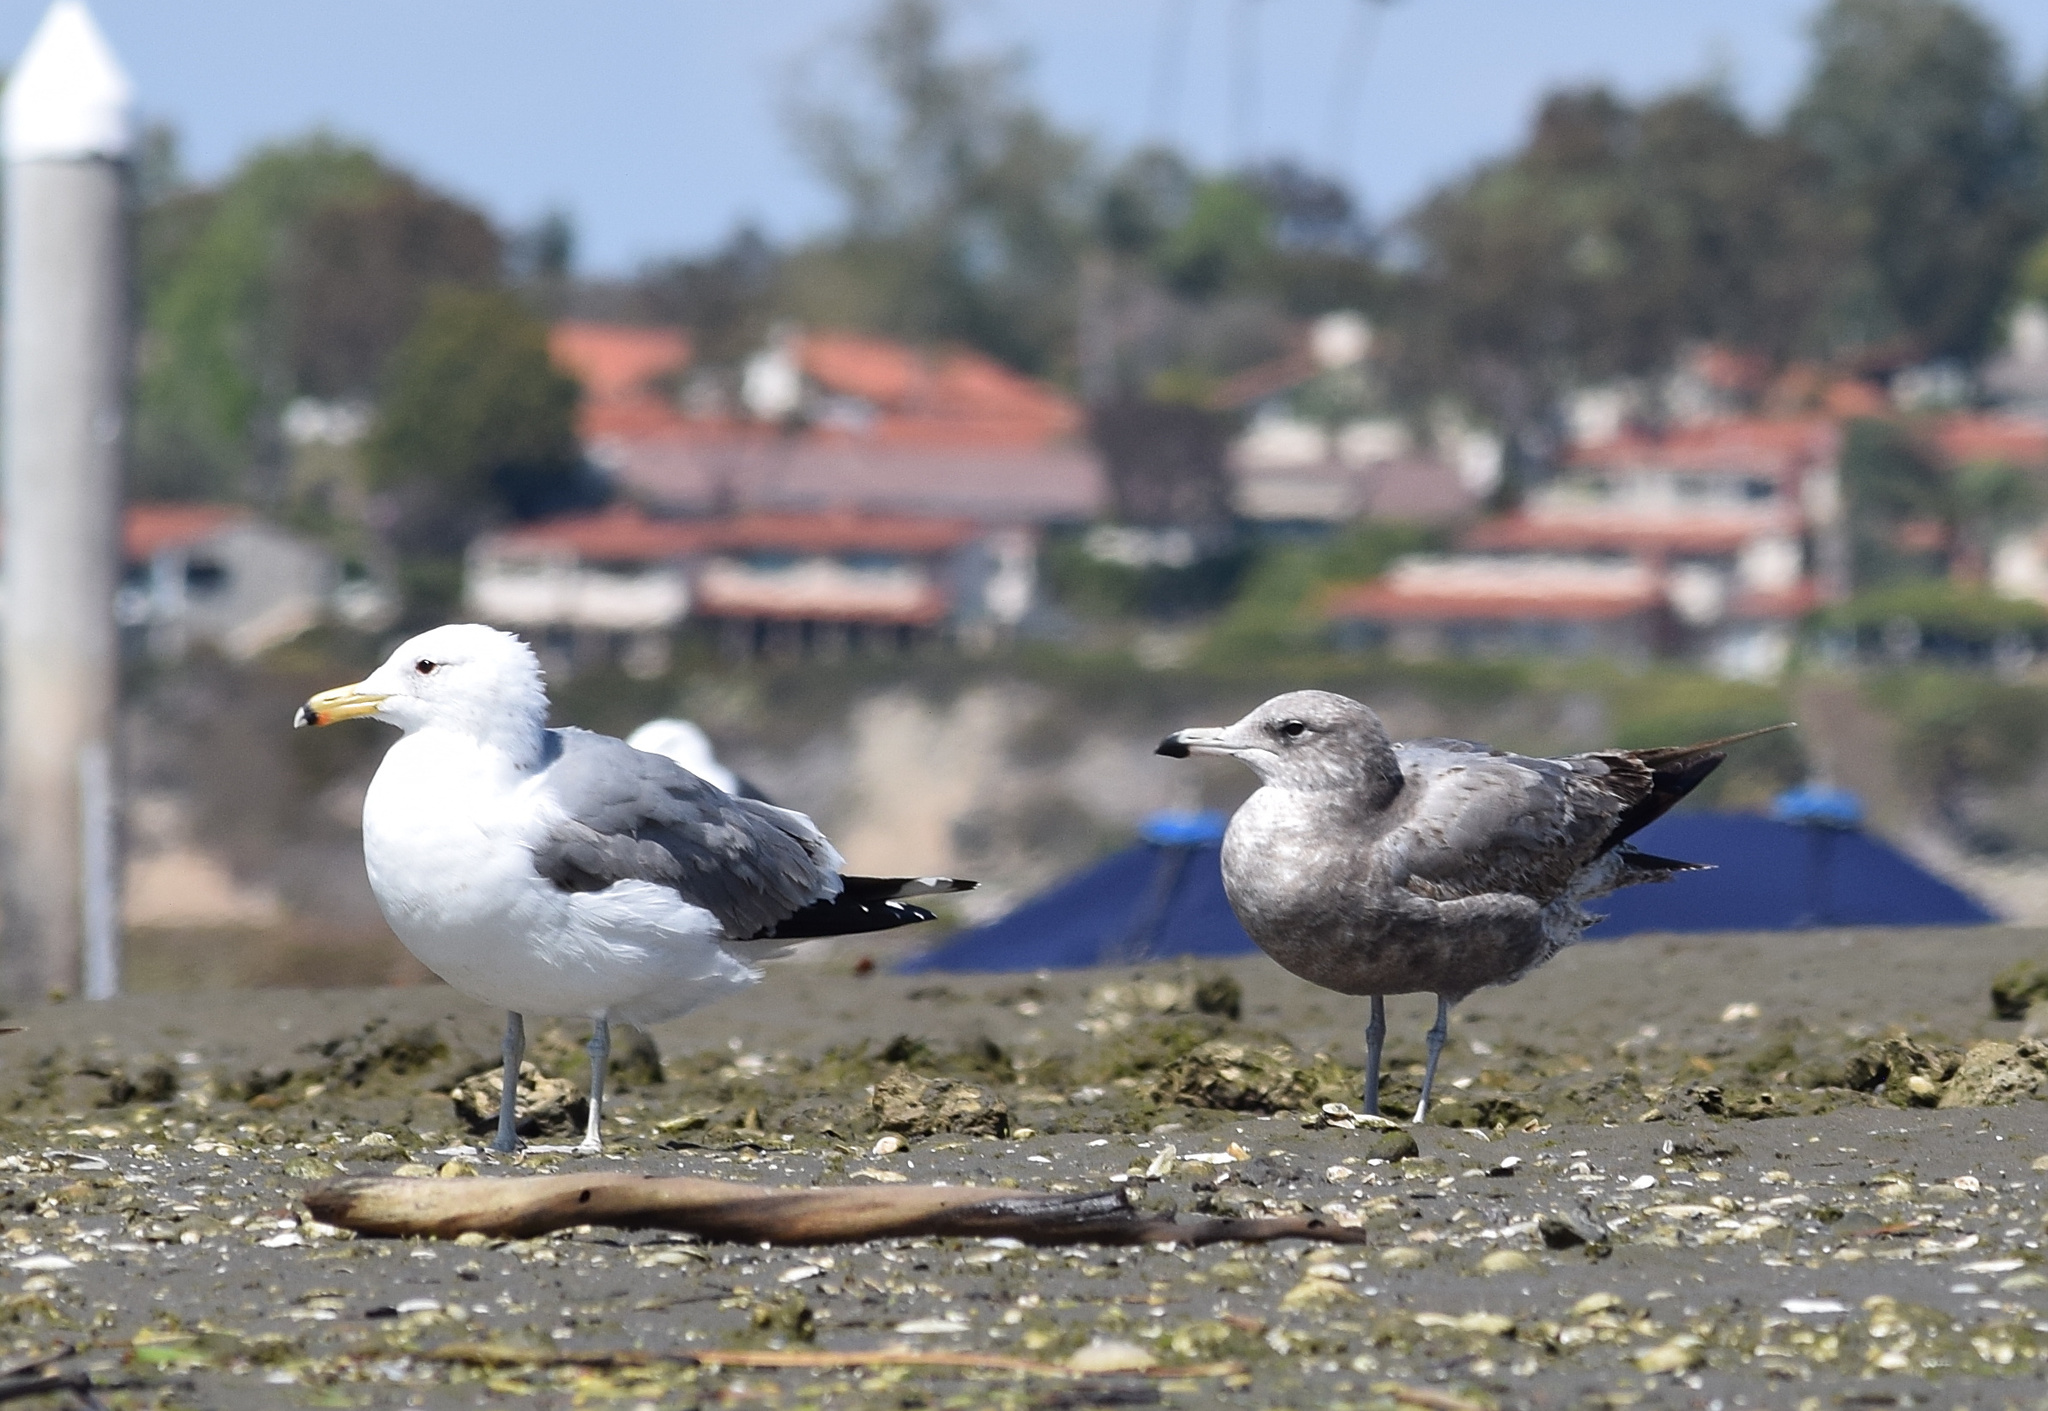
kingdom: Animalia
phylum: Chordata
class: Aves
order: Charadriiformes
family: Laridae
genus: Larus
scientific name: Larus californicus
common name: California gull
